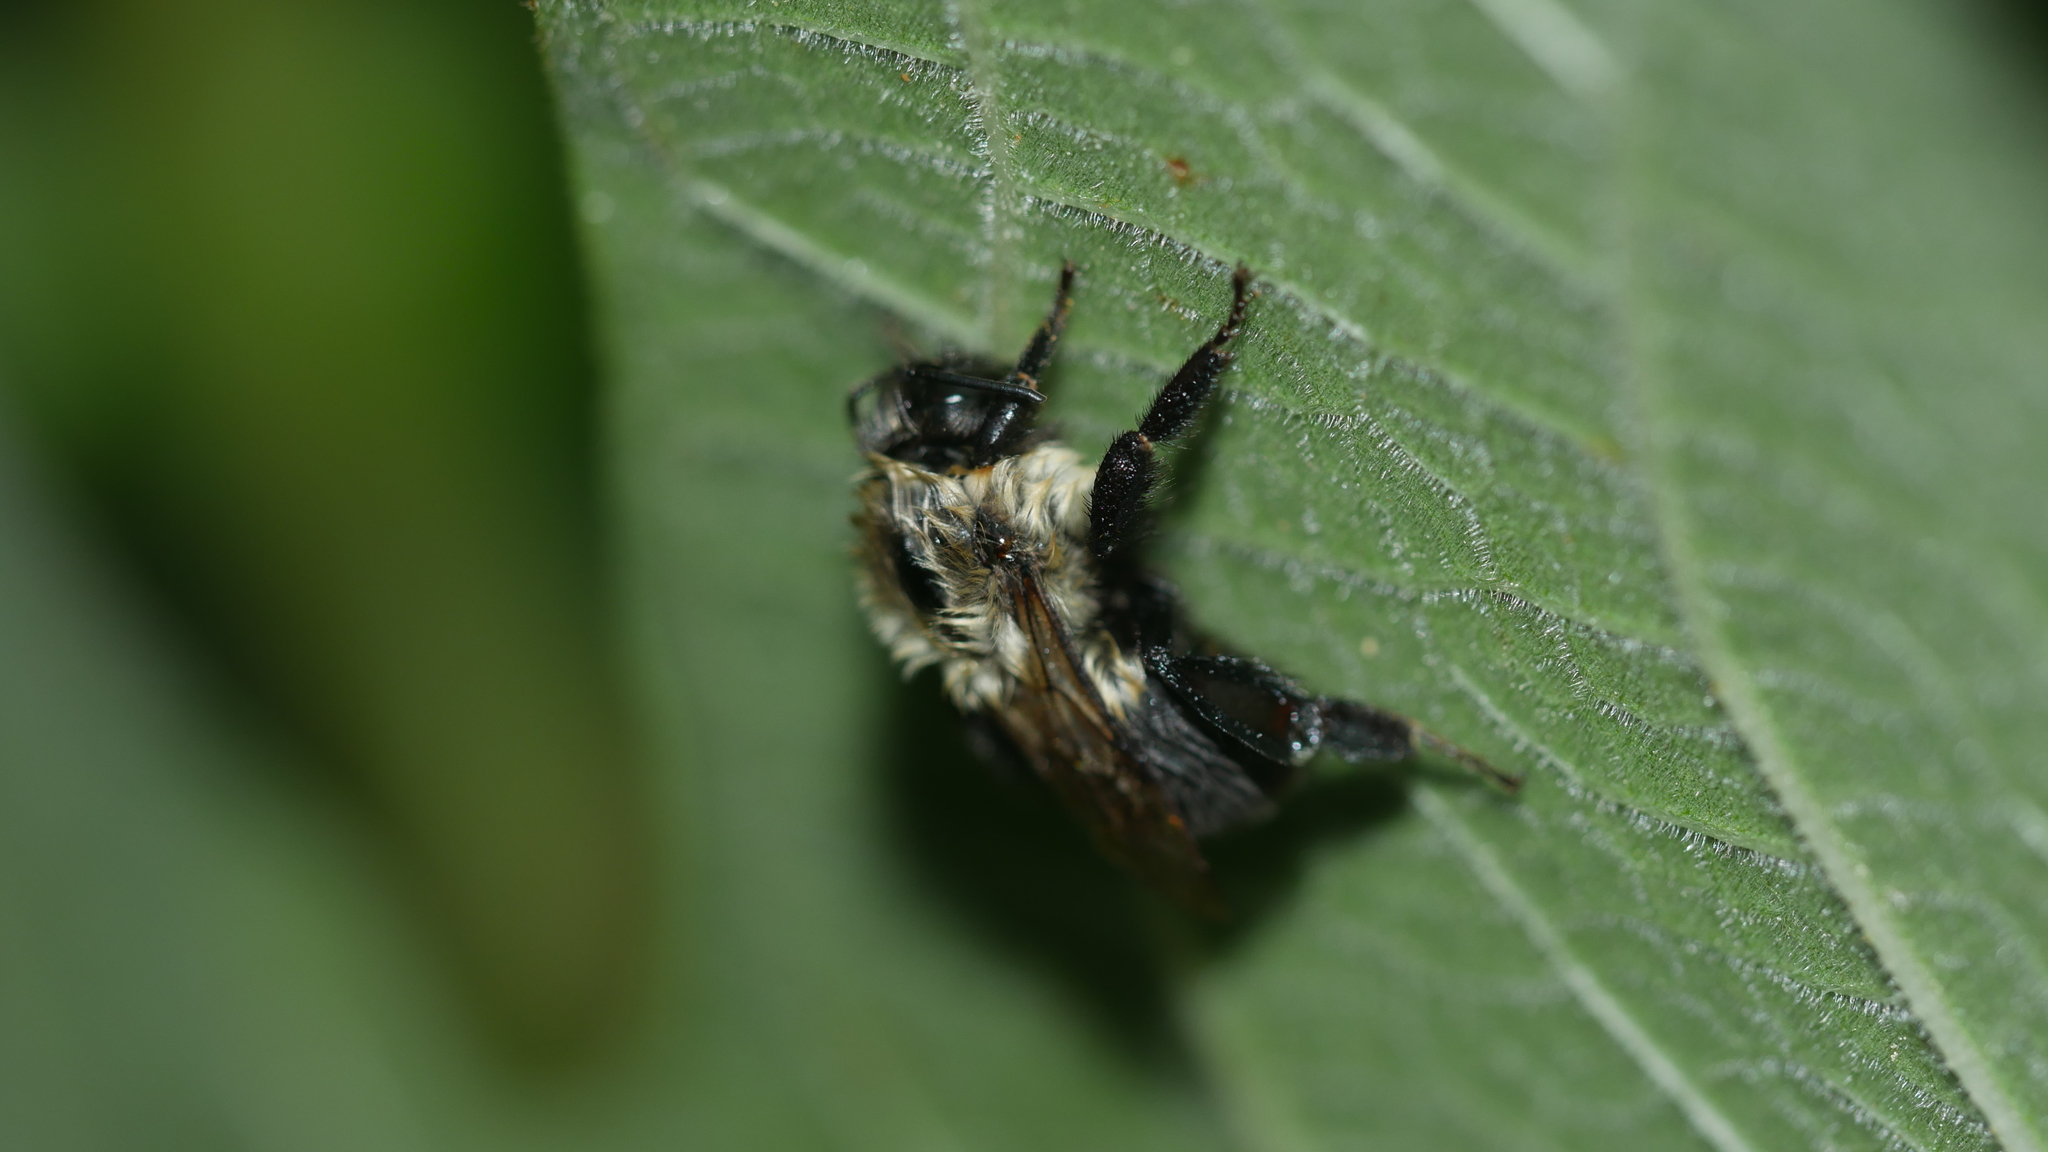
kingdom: Animalia
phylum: Arthropoda
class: Insecta
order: Hymenoptera
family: Apidae
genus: Bombus
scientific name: Bombus impatiens
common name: Common eastern bumble bee
